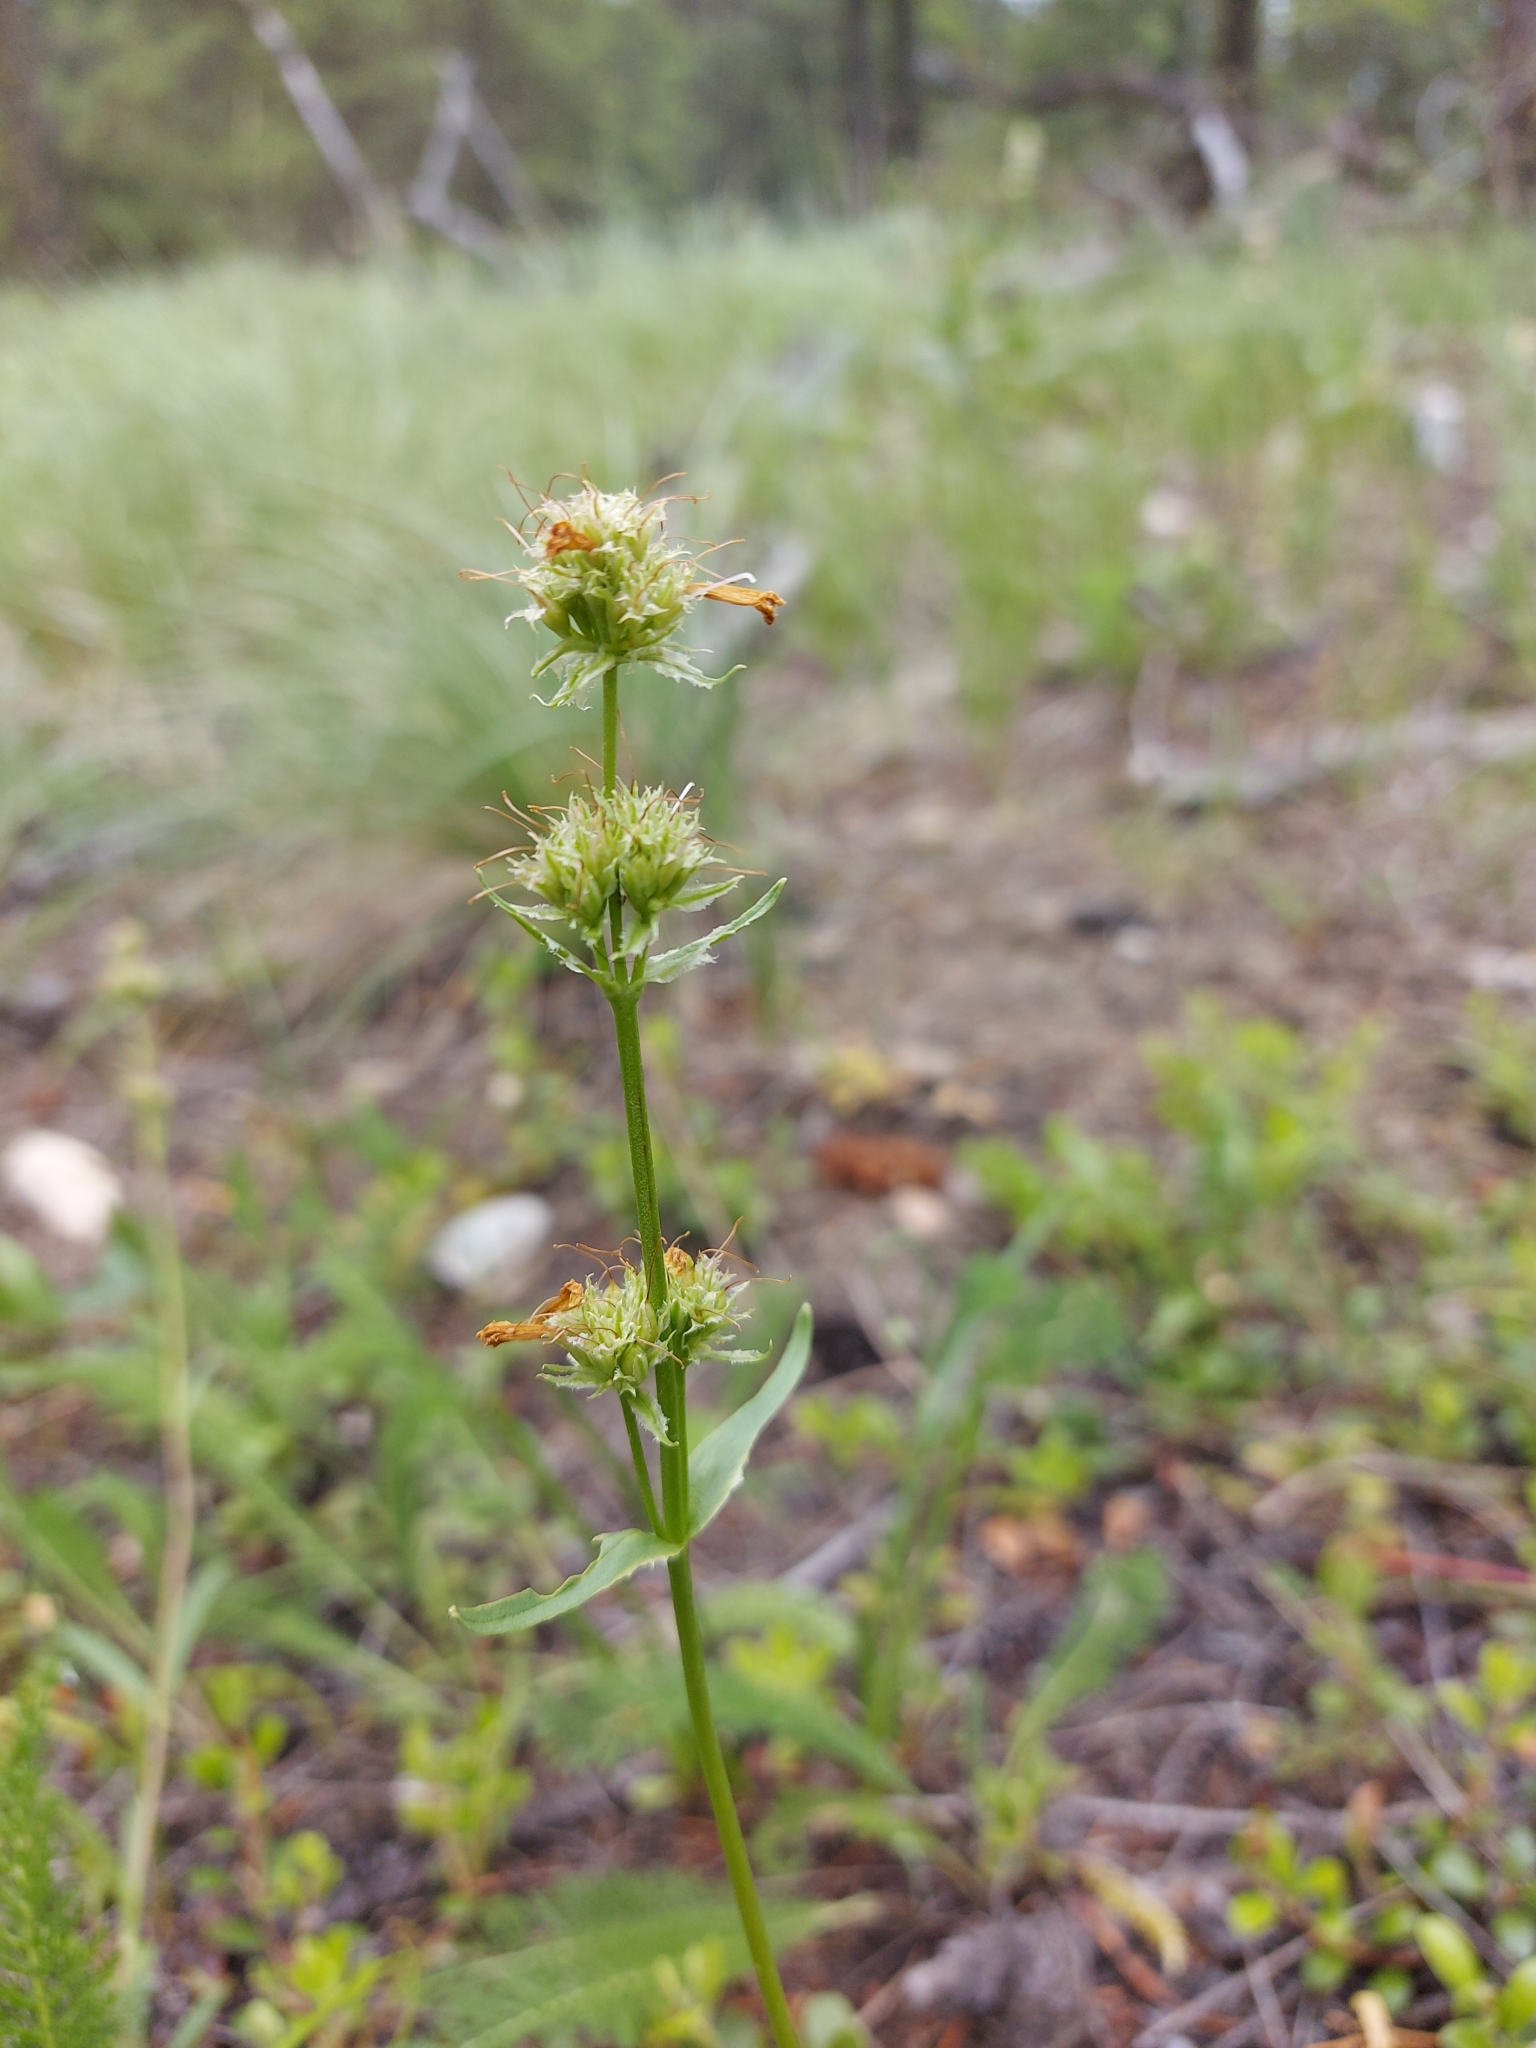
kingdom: Plantae
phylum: Tracheophyta
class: Magnoliopsida
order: Lamiales
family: Plantaginaceae
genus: Penstemon
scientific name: Penstemon confertus
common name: Lesser yellow beardtongue
